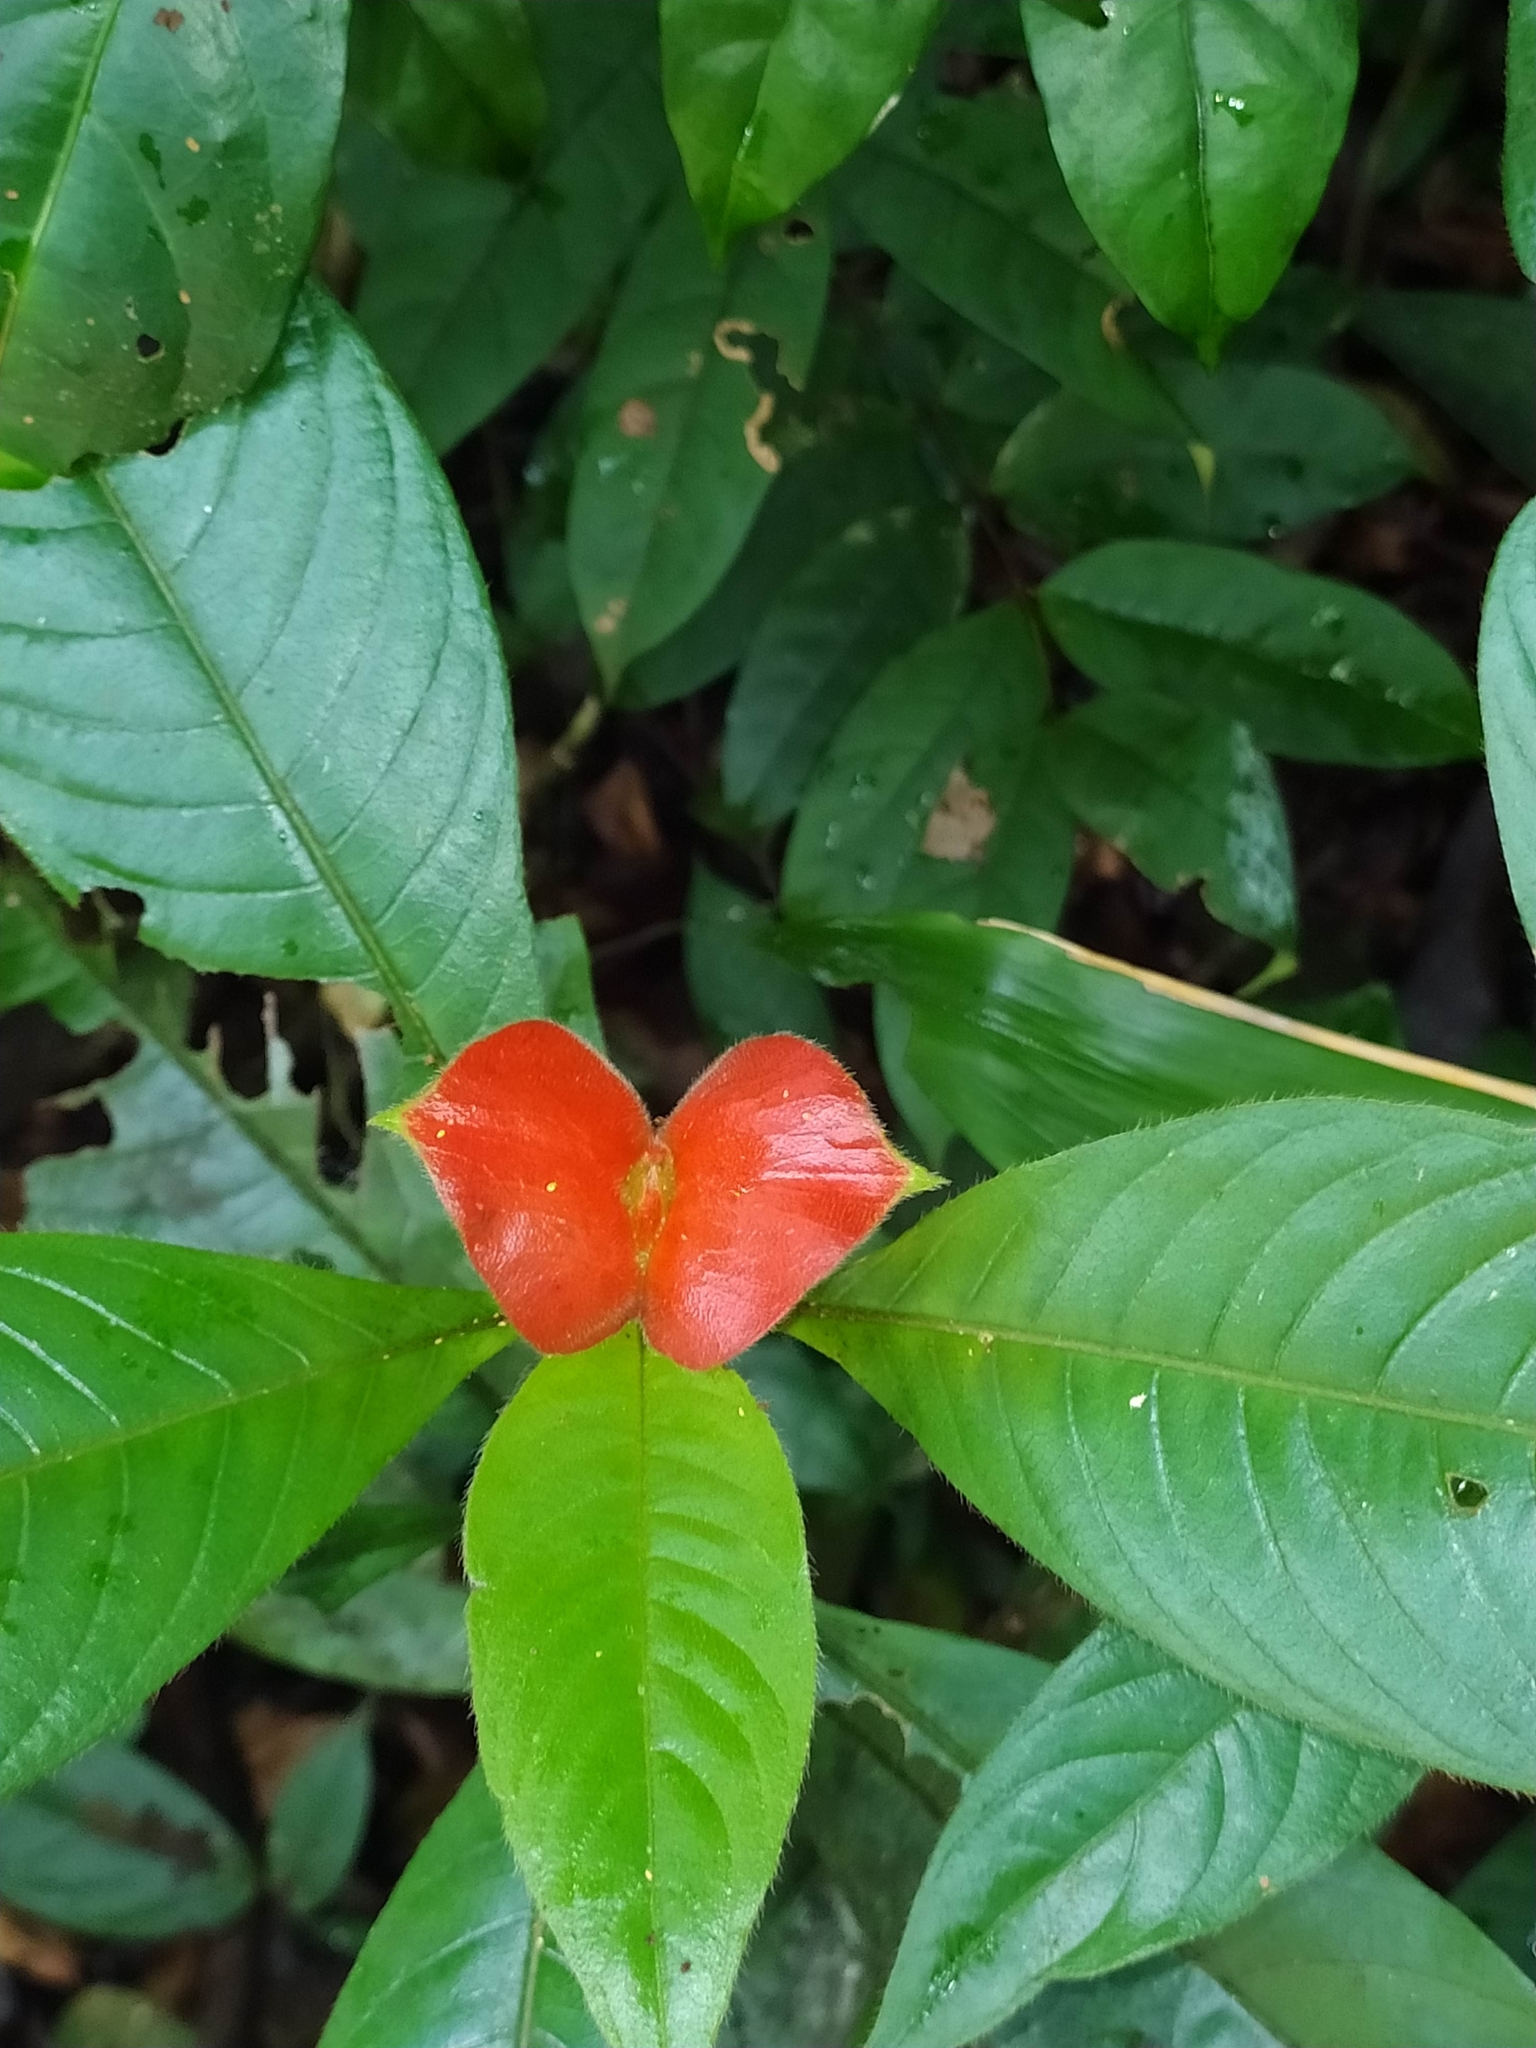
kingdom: Plantae
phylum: Tracheophyta
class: Magnoliopsida
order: Gentianales
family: Rubiaceae
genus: Palicourea
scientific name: Palicourea tomentosa
